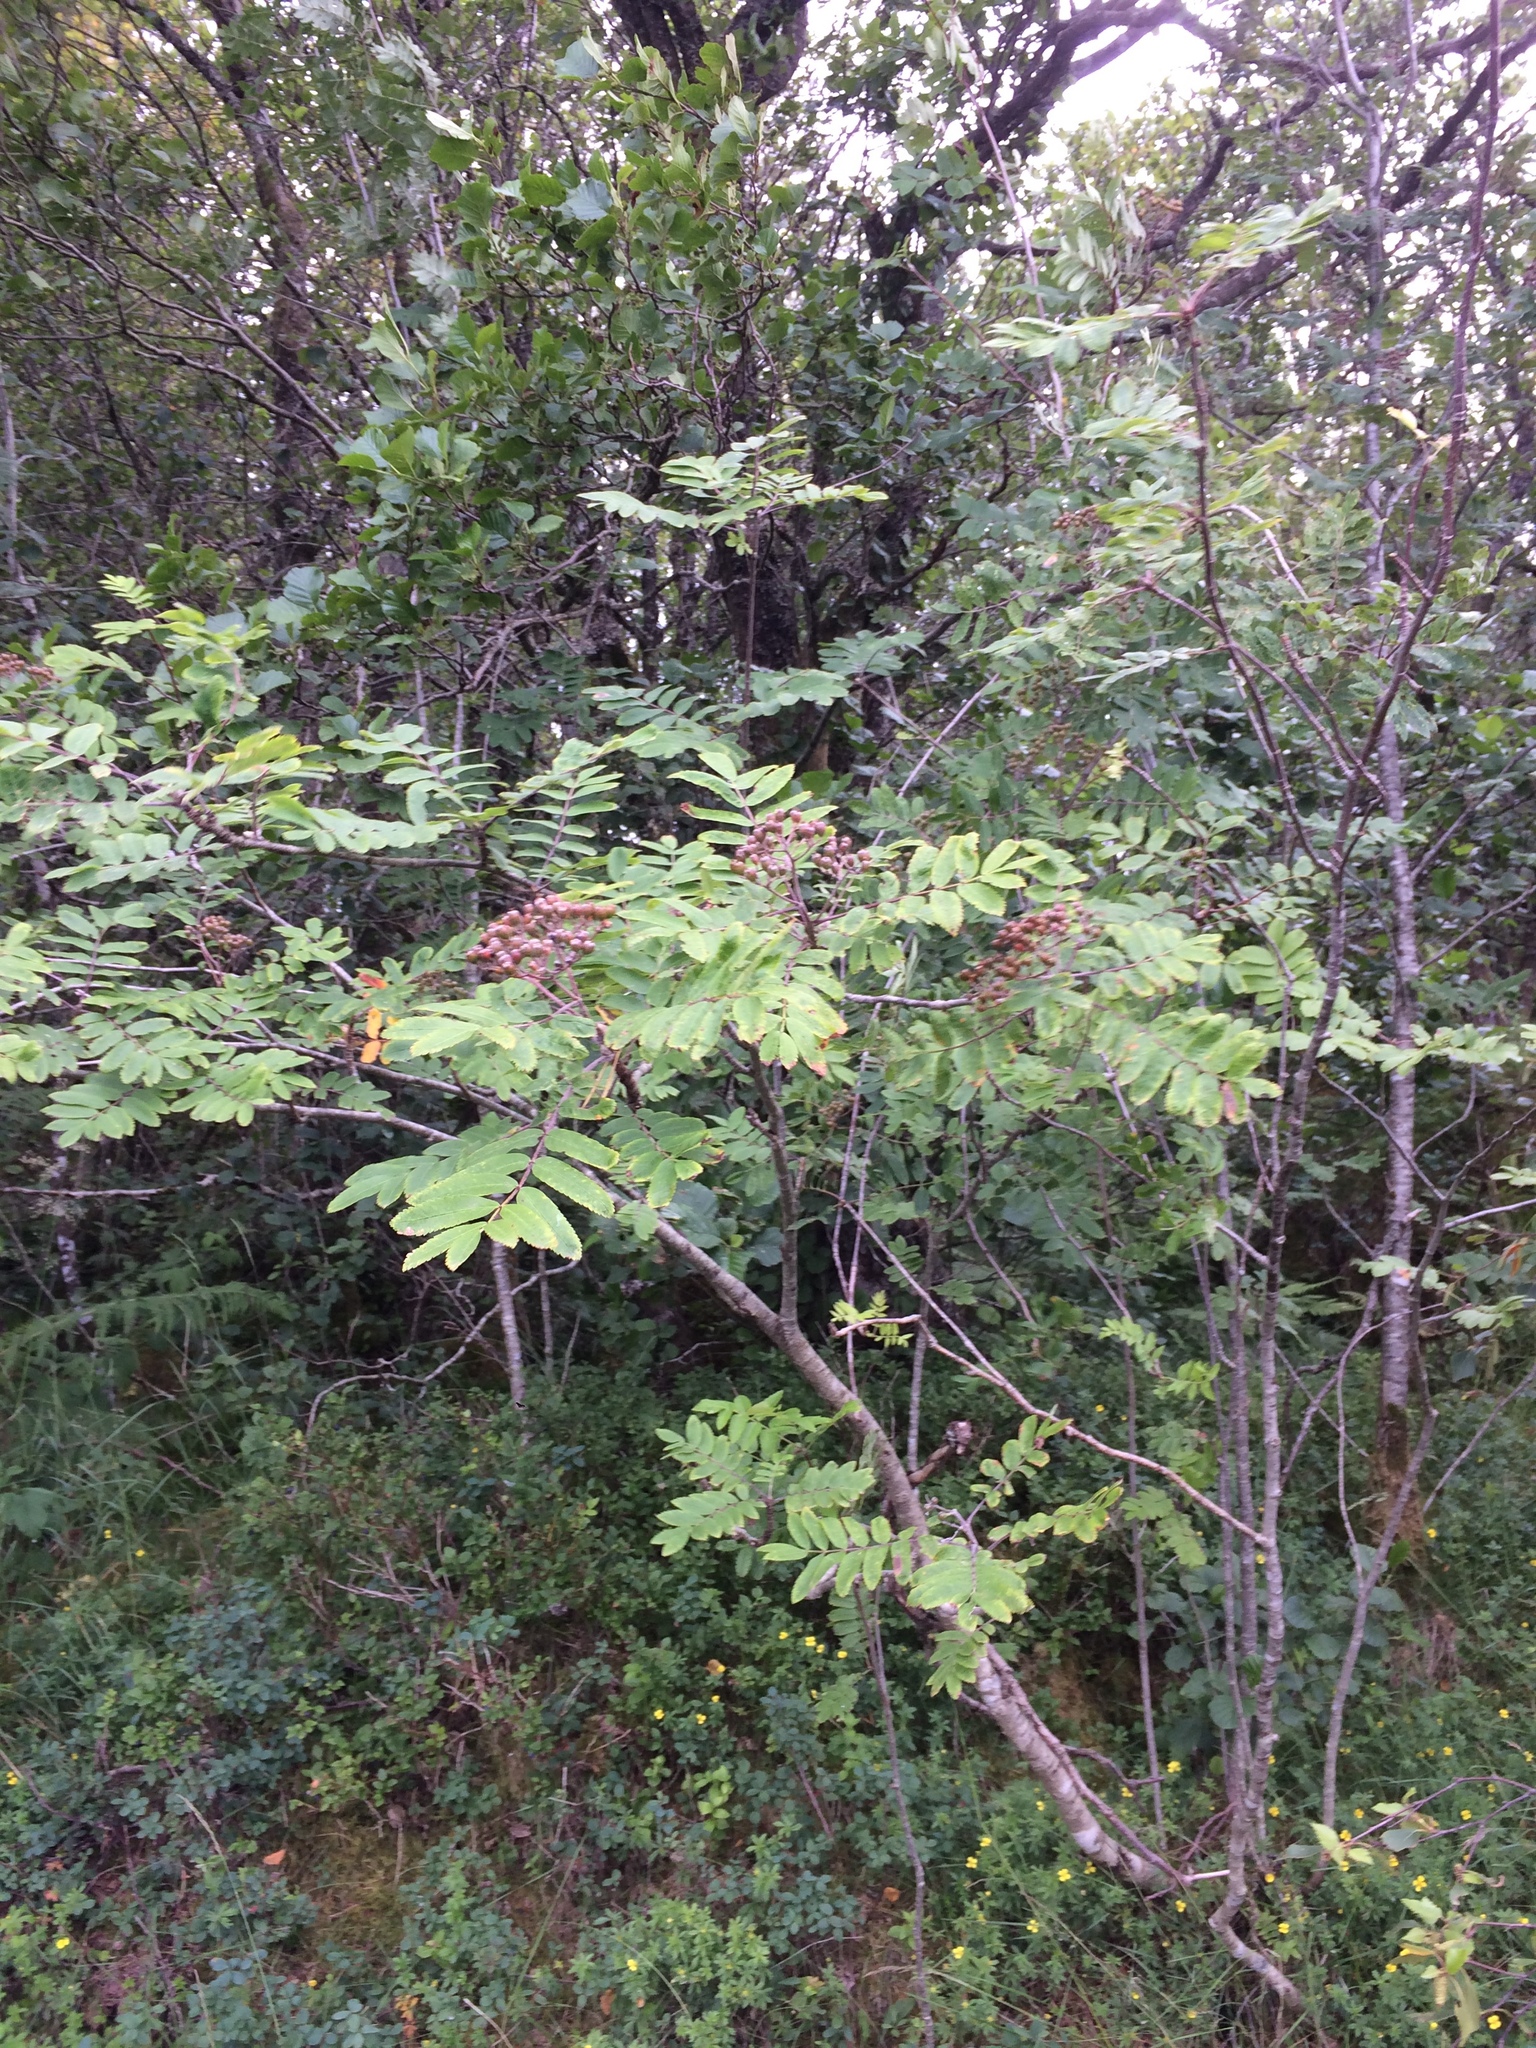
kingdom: Plantae
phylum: Tracheophyta
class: Magnoliopsida
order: Rosales
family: Rosaceae
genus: Sorbus
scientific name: Sorbus aucuparia
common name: Rowan
